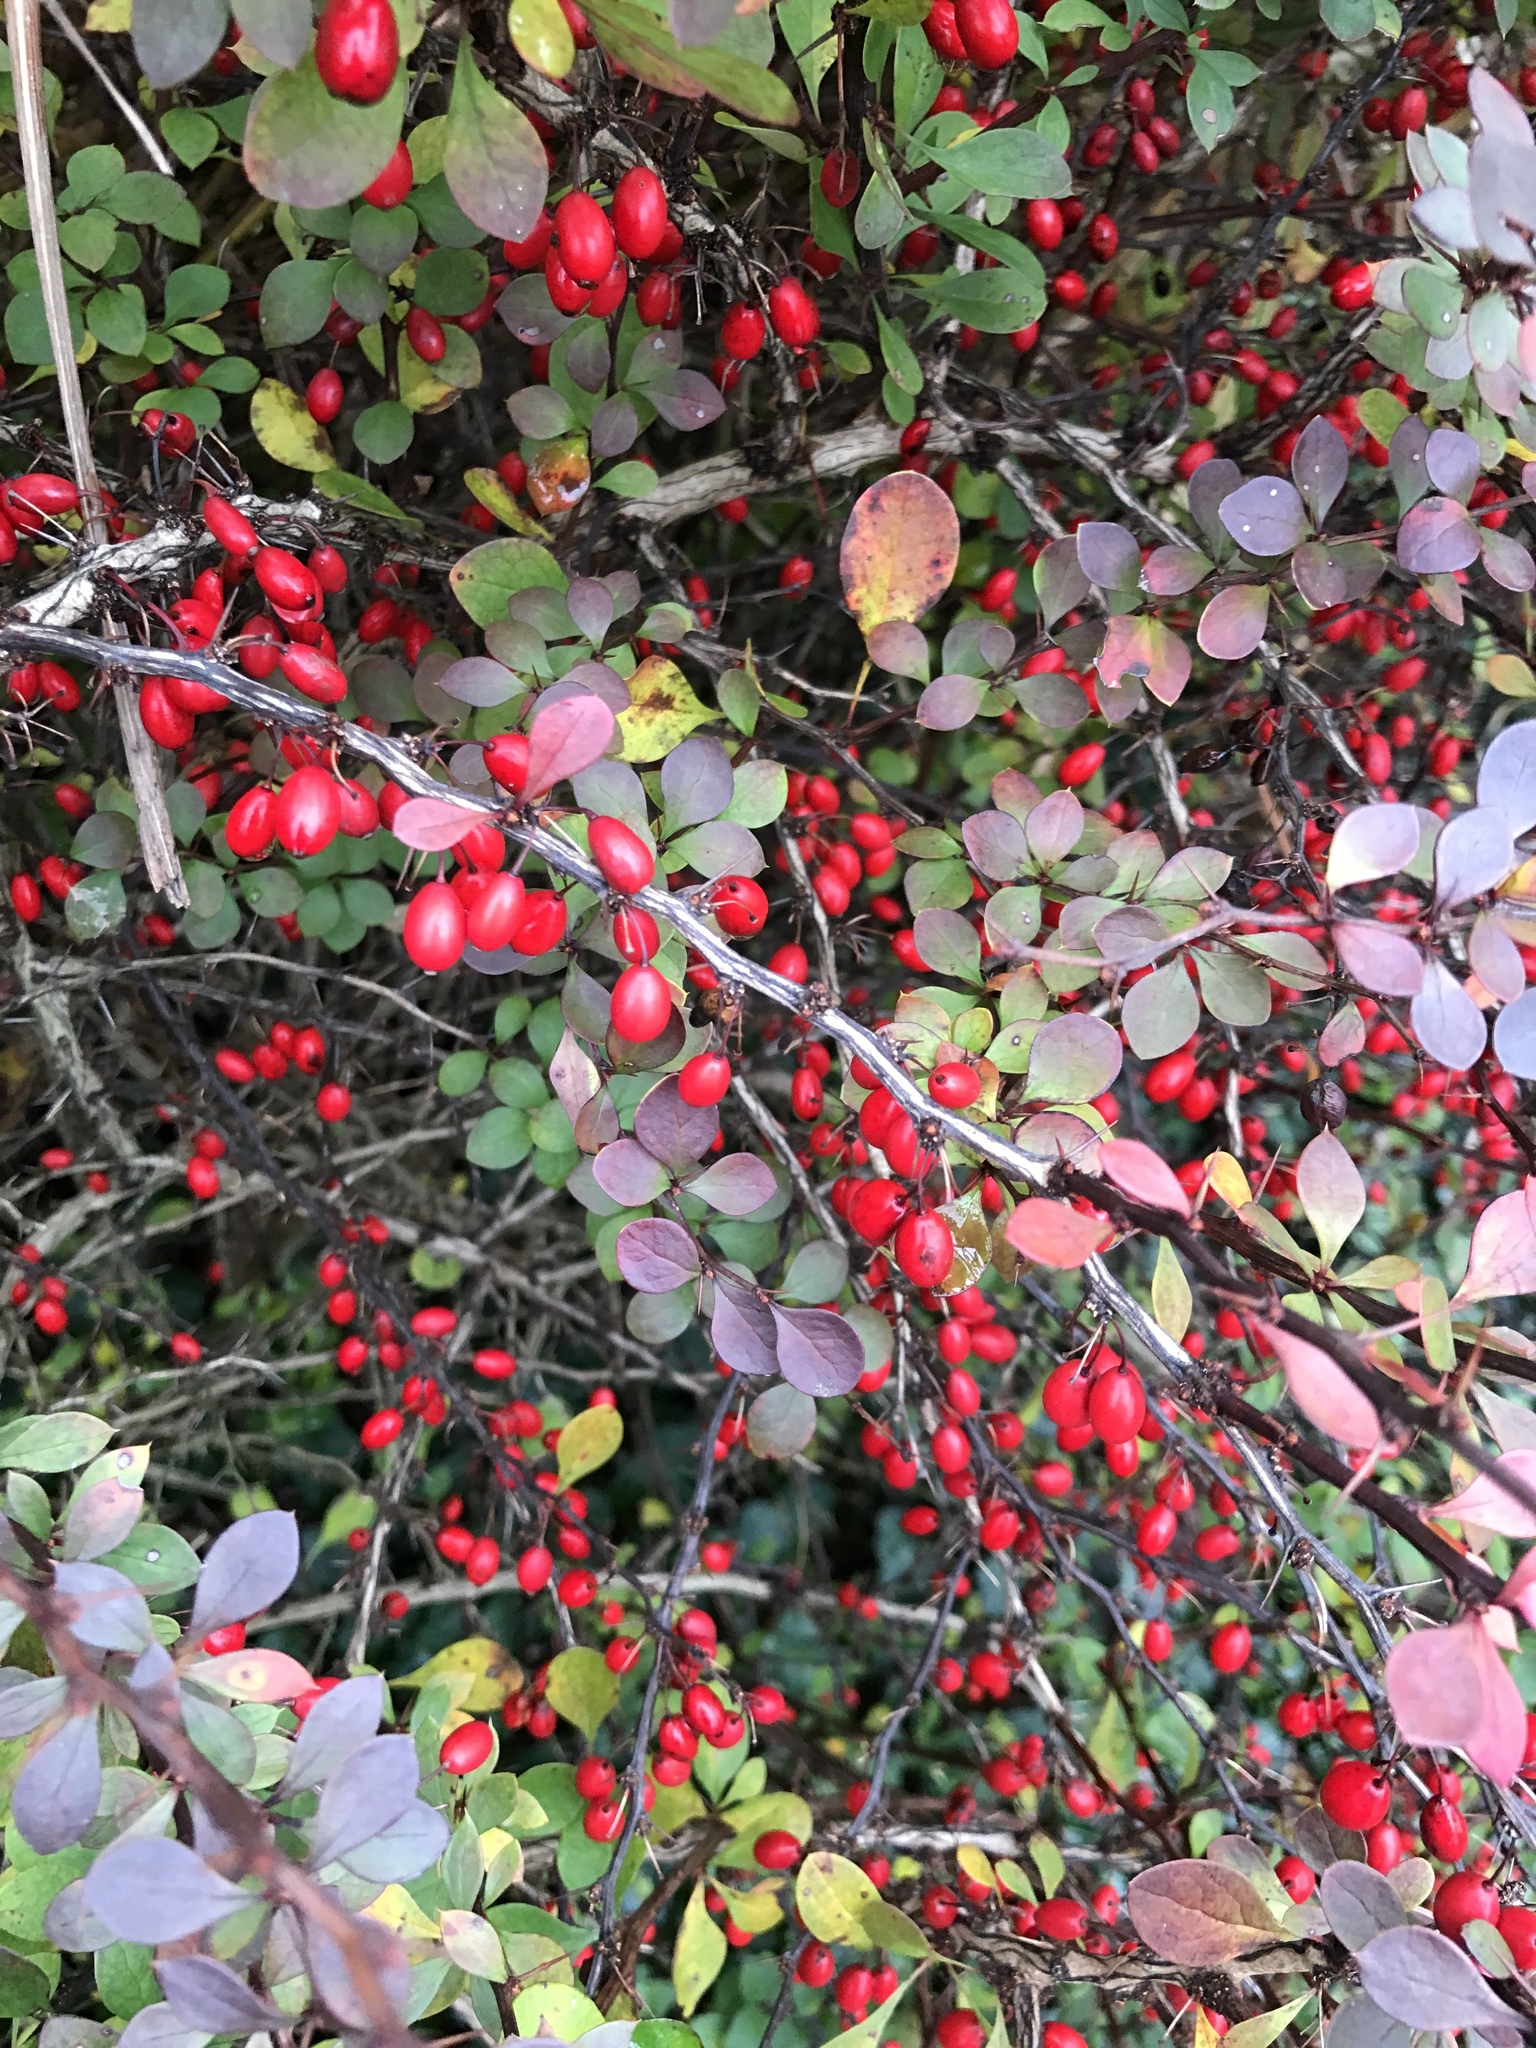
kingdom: Plantae
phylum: Tracheophyta
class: Magnoliopsida
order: Ranunculales
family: Berberidaceae
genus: Berberis
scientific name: Berberis thunbergii
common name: Japanese barberry
